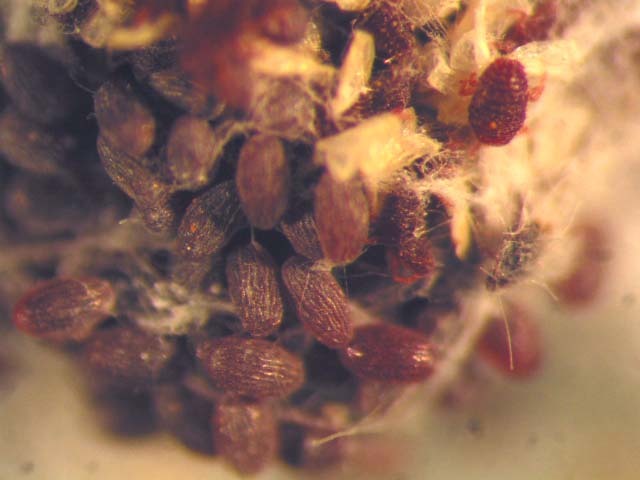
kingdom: Animalia
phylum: Arthropoda
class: Insecta
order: Hemiptera
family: Dactylopiidae
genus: Dactylopius
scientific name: Dactylopius tomentosus
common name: Tomentose cochineal scale
